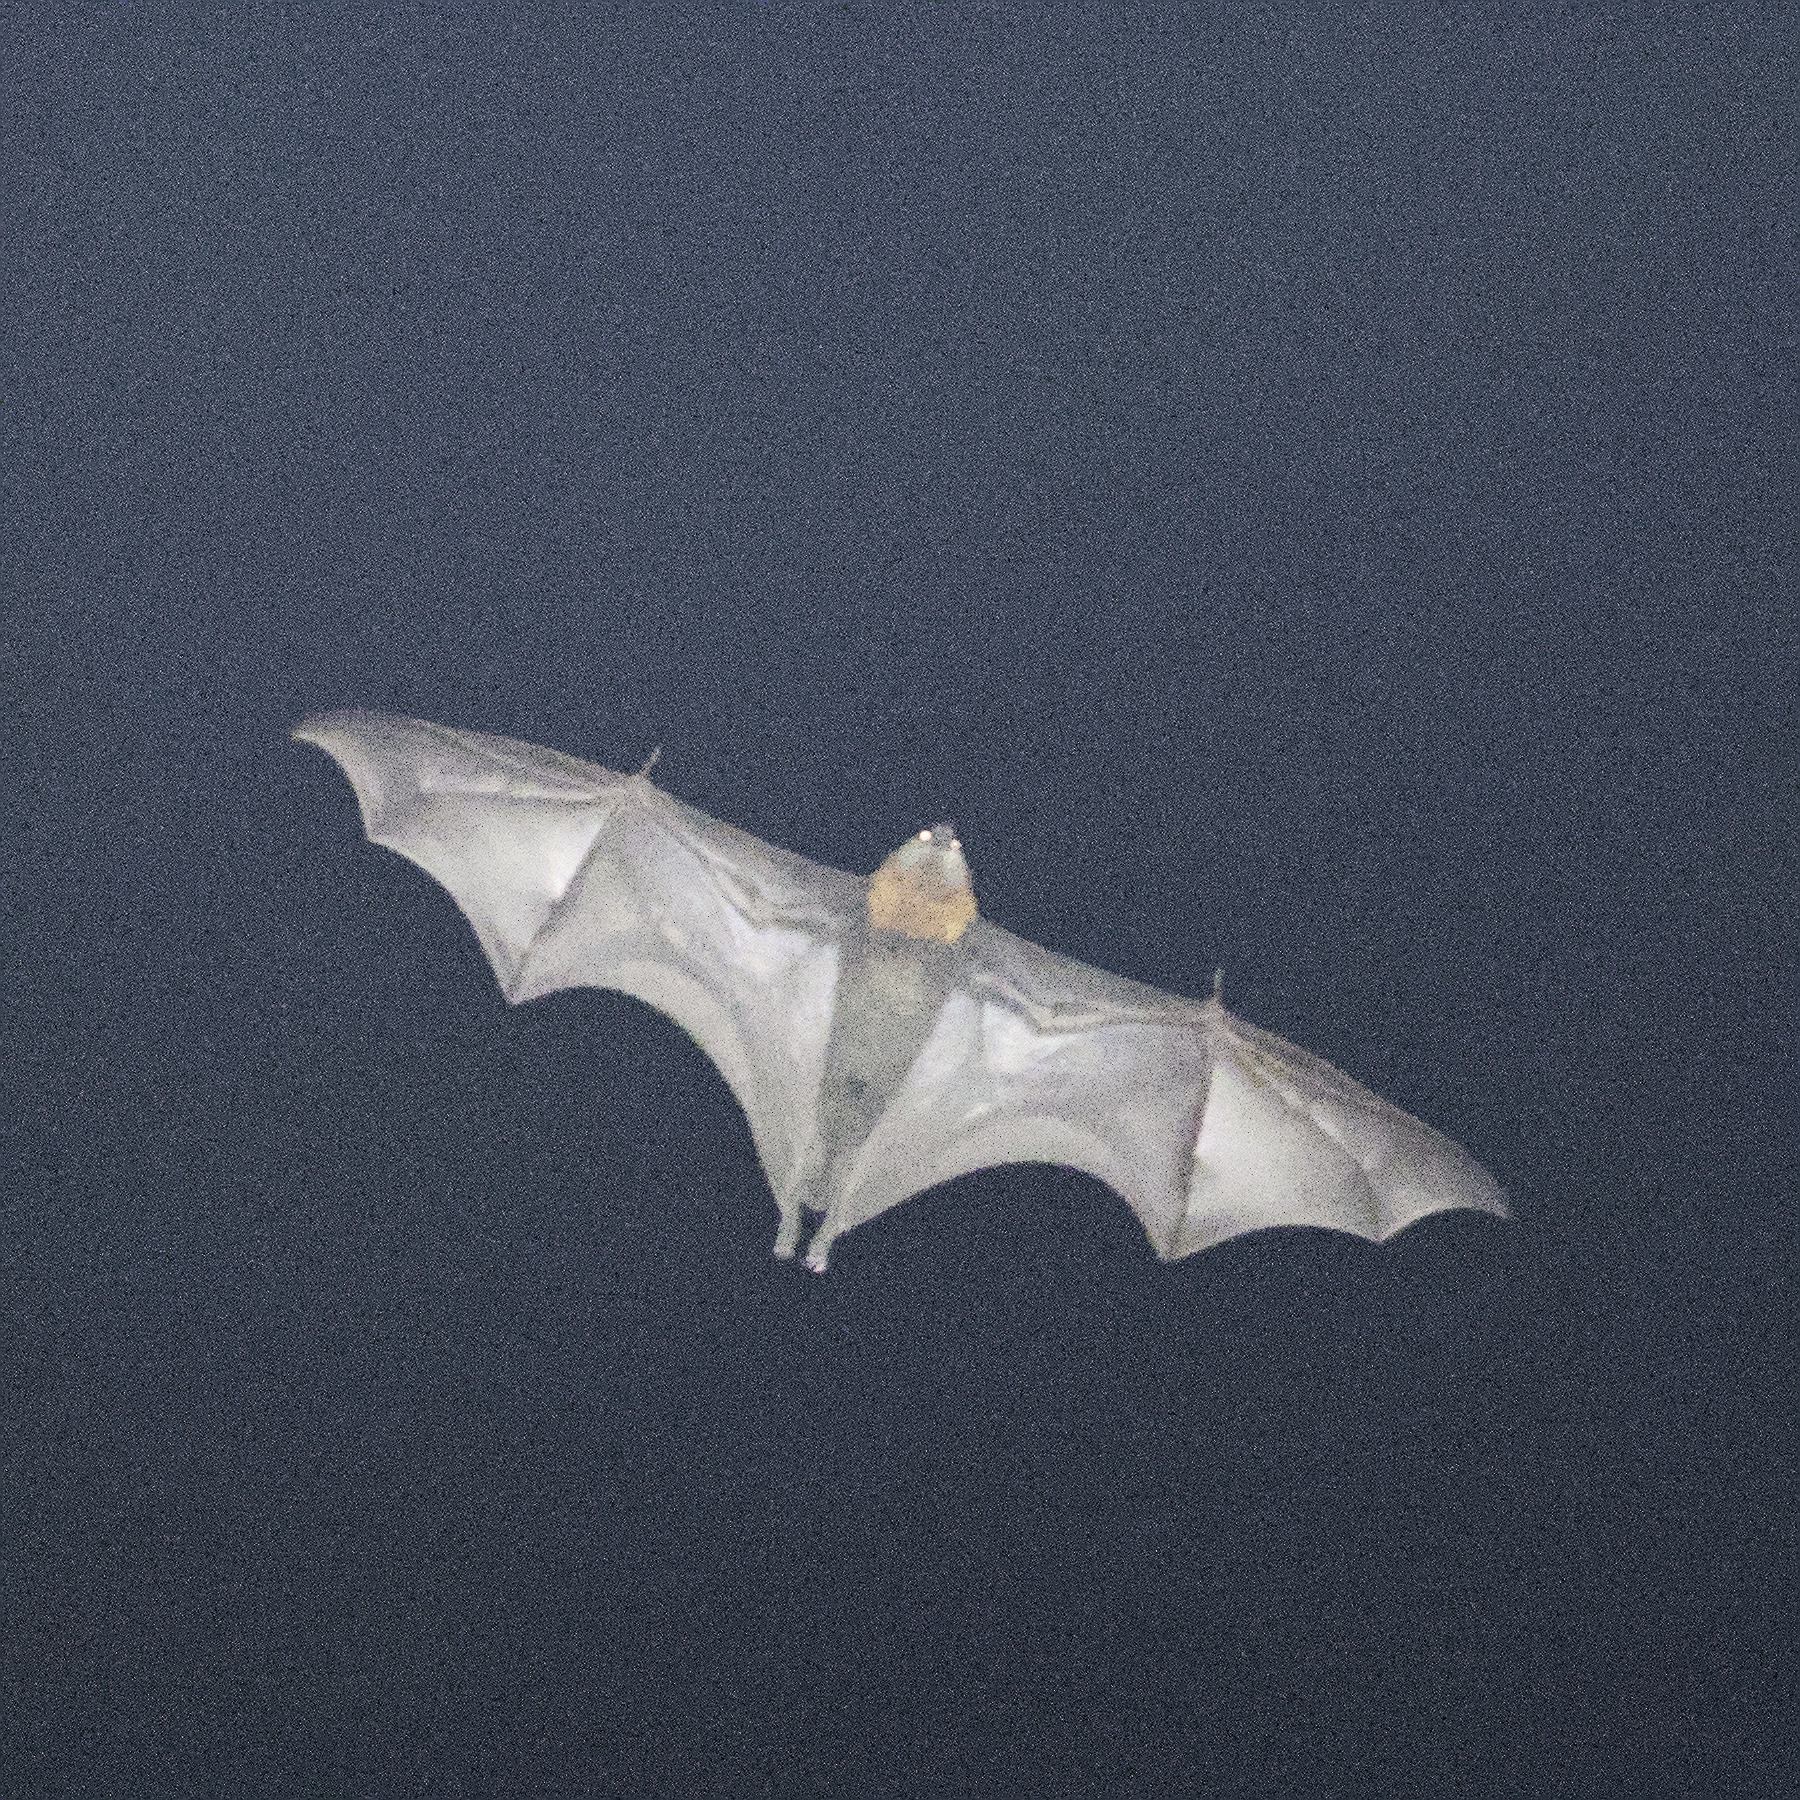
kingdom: Animalia
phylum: Chordata
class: Mammalia
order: Chiroptera
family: Pteropodidae
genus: Pteropus
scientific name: Pteropus poliocephalus
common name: Gray-headed flying fox
